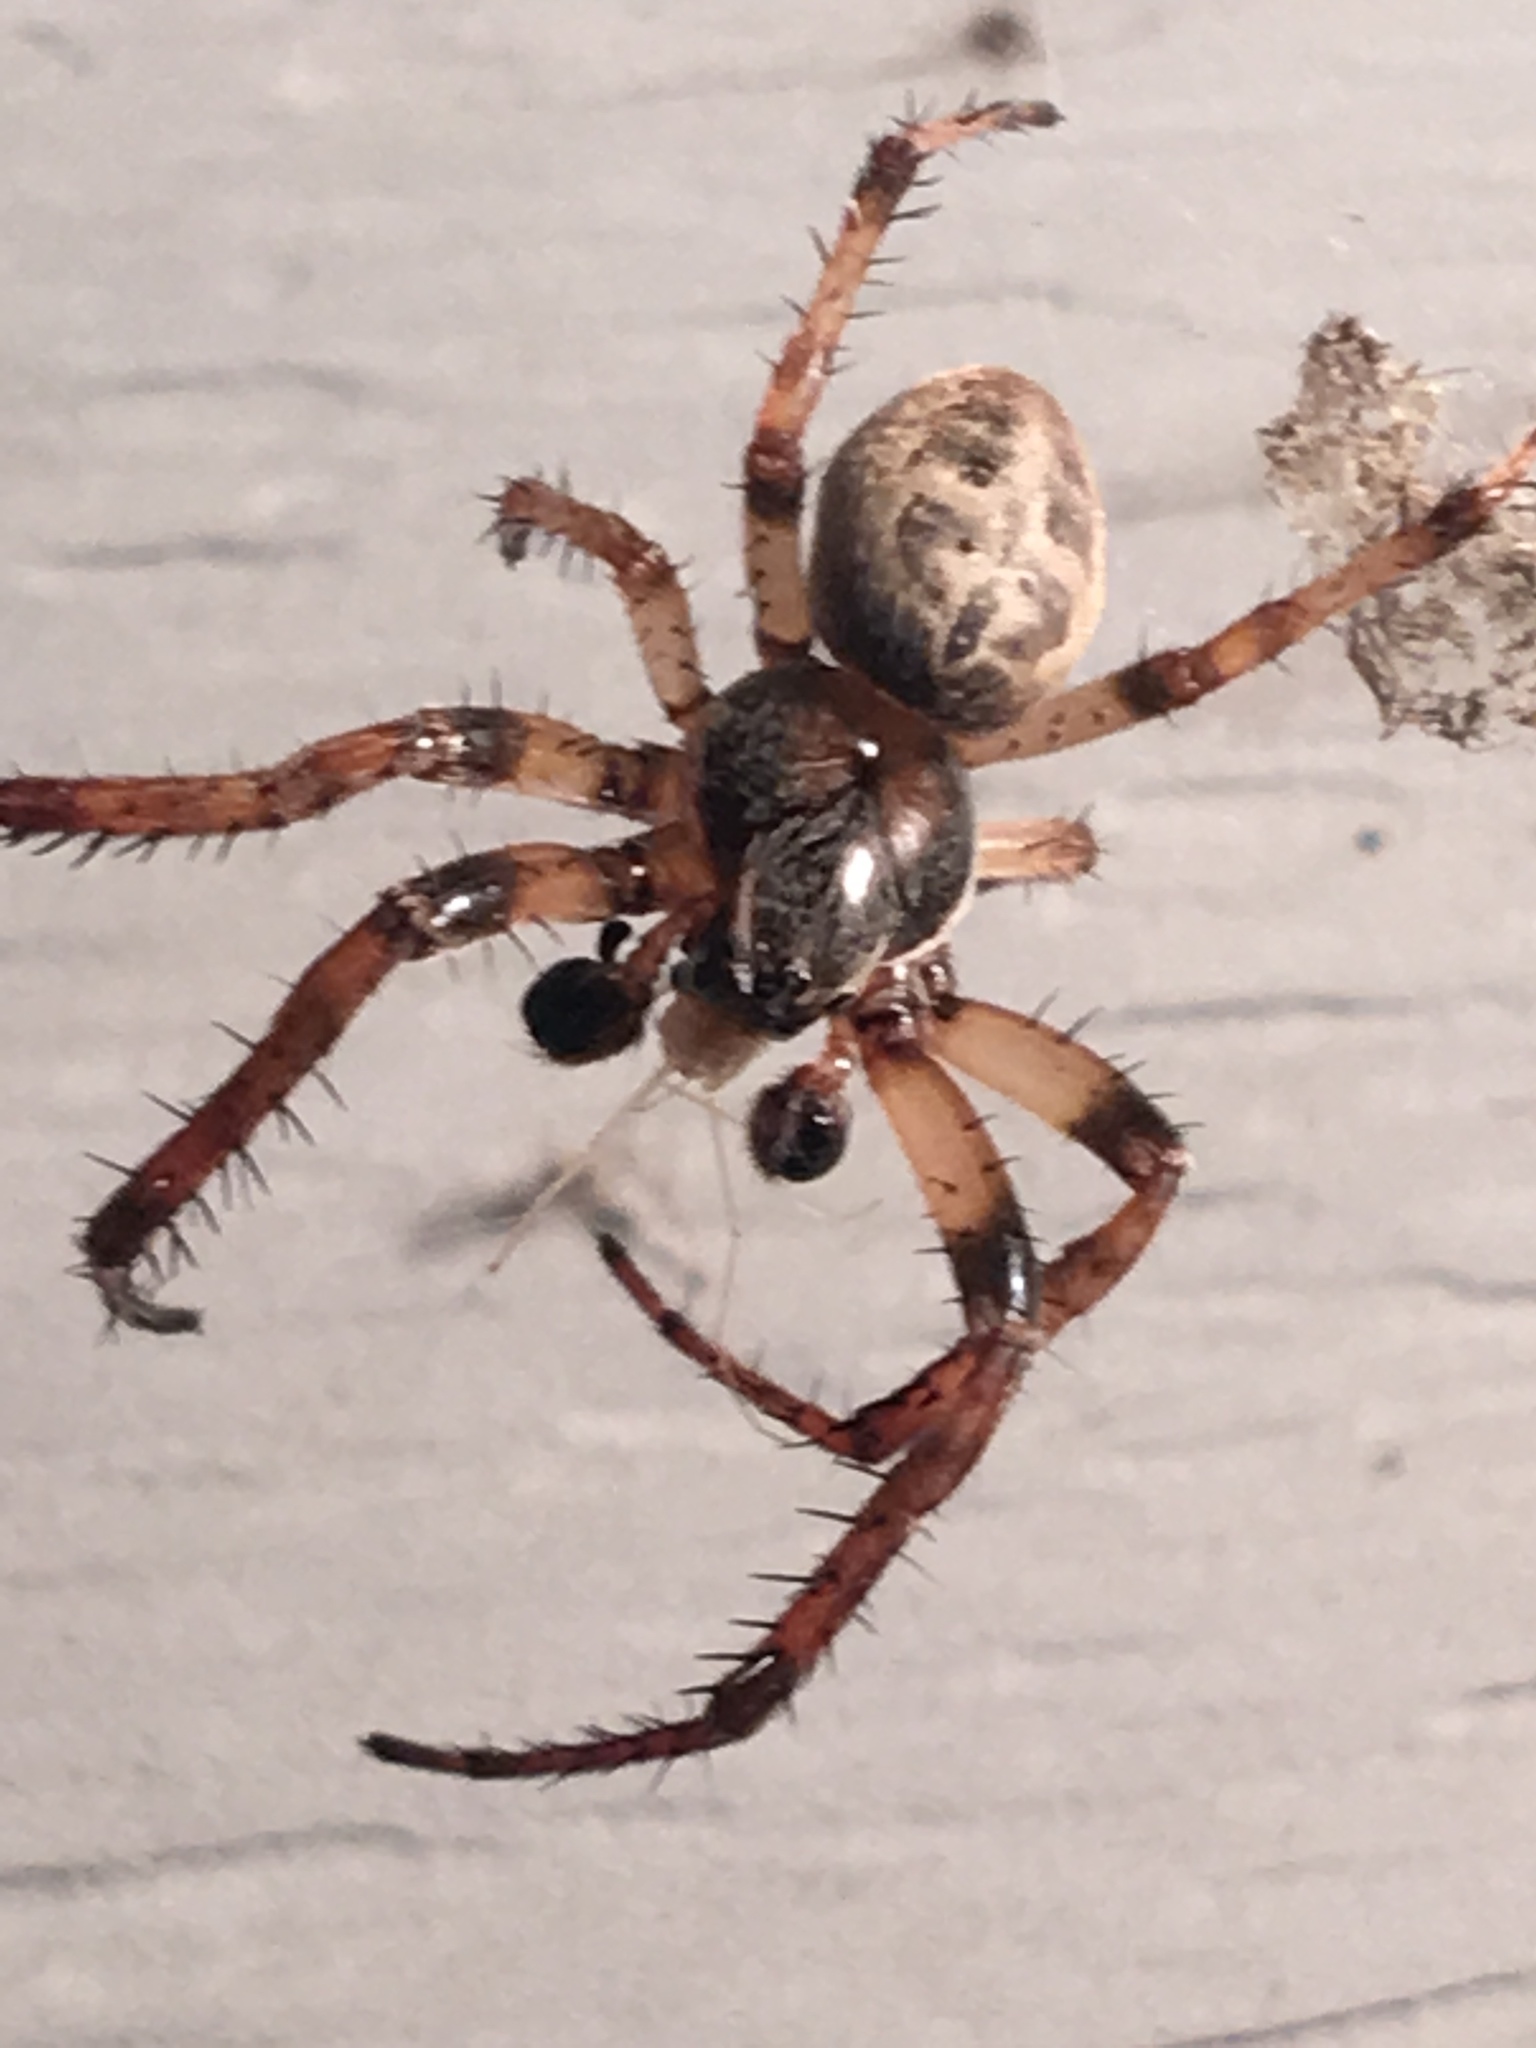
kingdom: Animalia
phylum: Arthropoda
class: Arachnida
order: Araneae
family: Araneidae
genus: Larinioides
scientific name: Larinioides cornutus
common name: Furrow orbweaver
